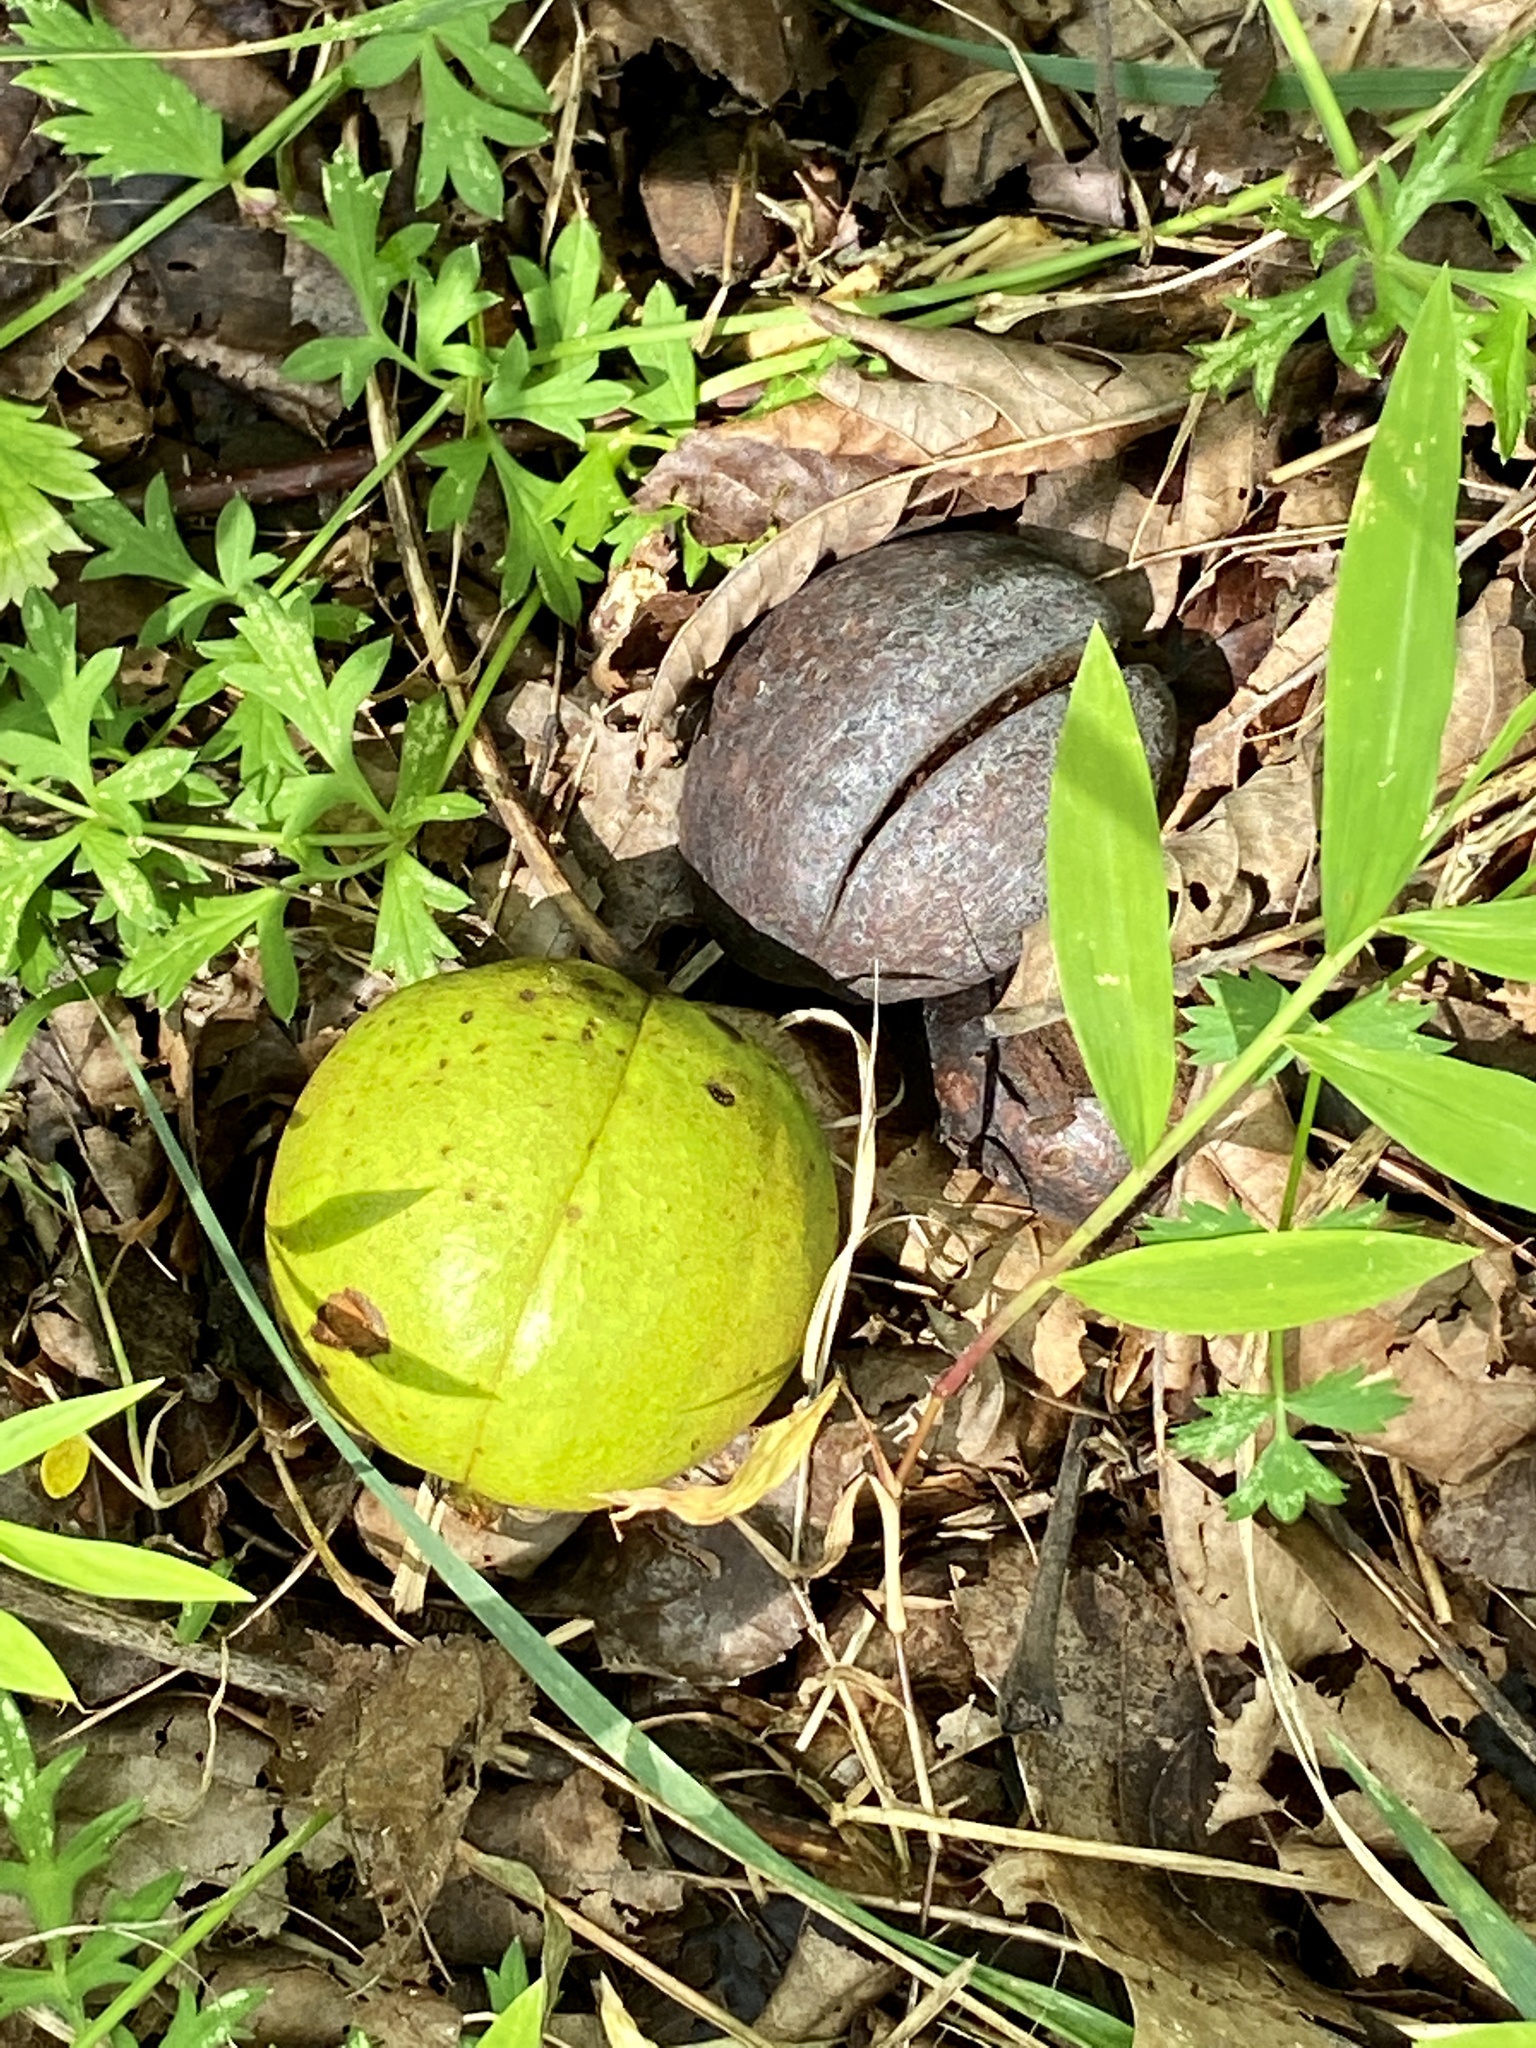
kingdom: Plantae
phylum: Tracheophyta
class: Magnoliopsida
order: Fagales
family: Juglandaceae
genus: Carya
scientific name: Carya ovata
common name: Shagbark hickory
